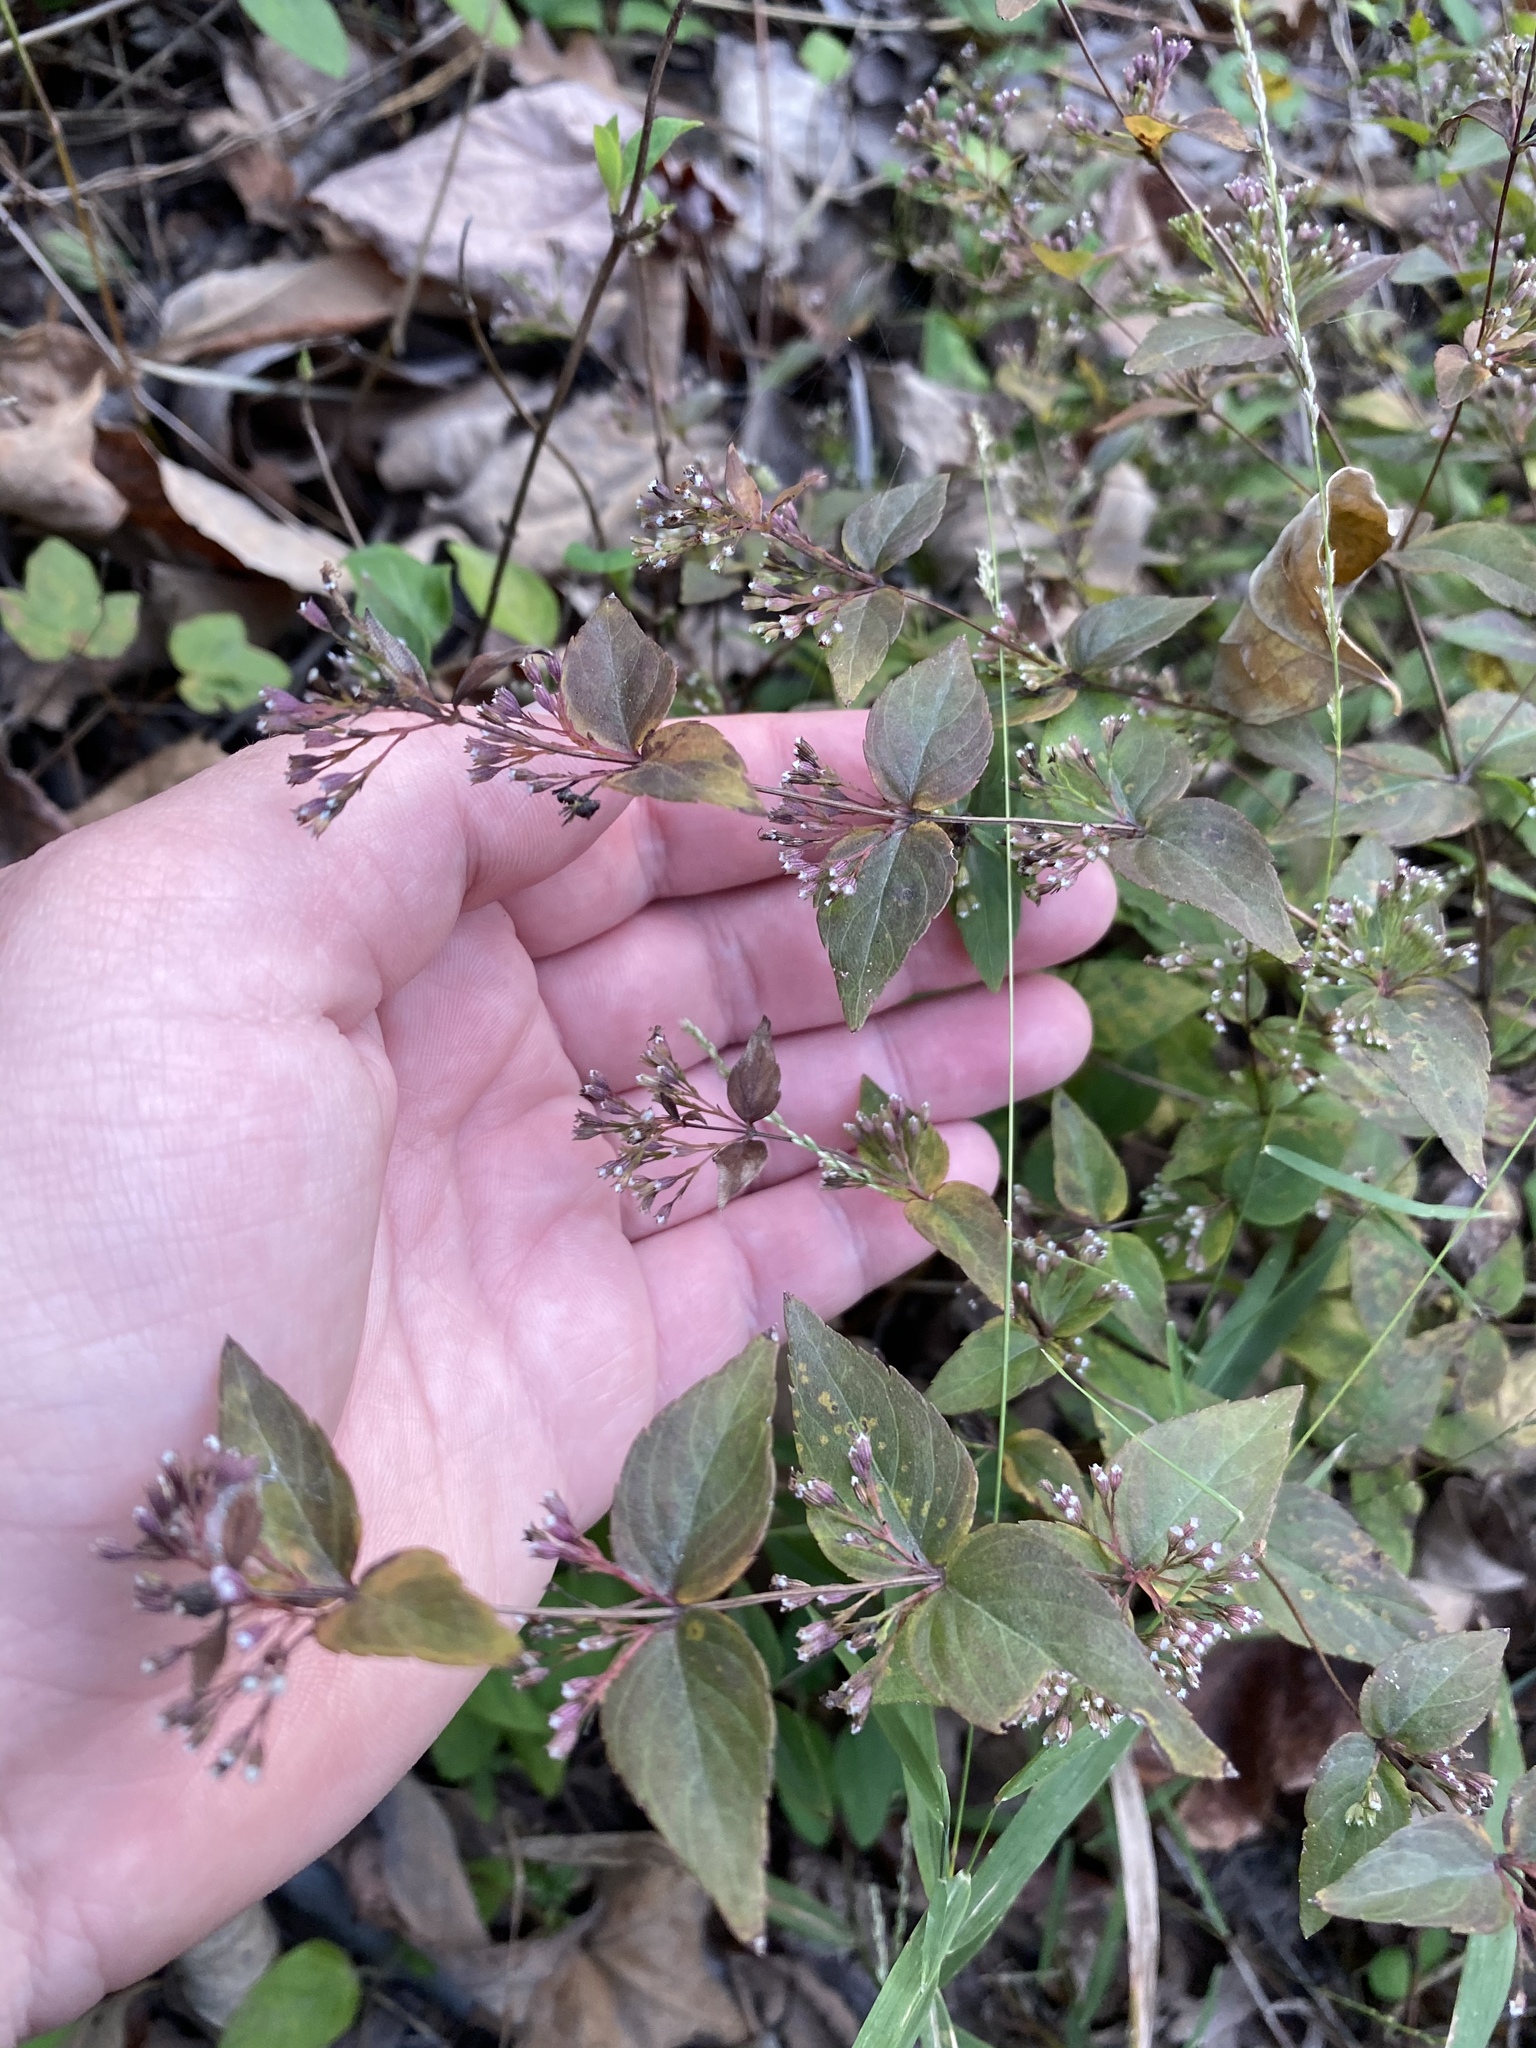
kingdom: Plantae
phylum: Tracheophyta
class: Magnoliopsida
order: Lamiales
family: Lamiaceae
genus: Cunila
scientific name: Cunila origanoides
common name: American dittany
